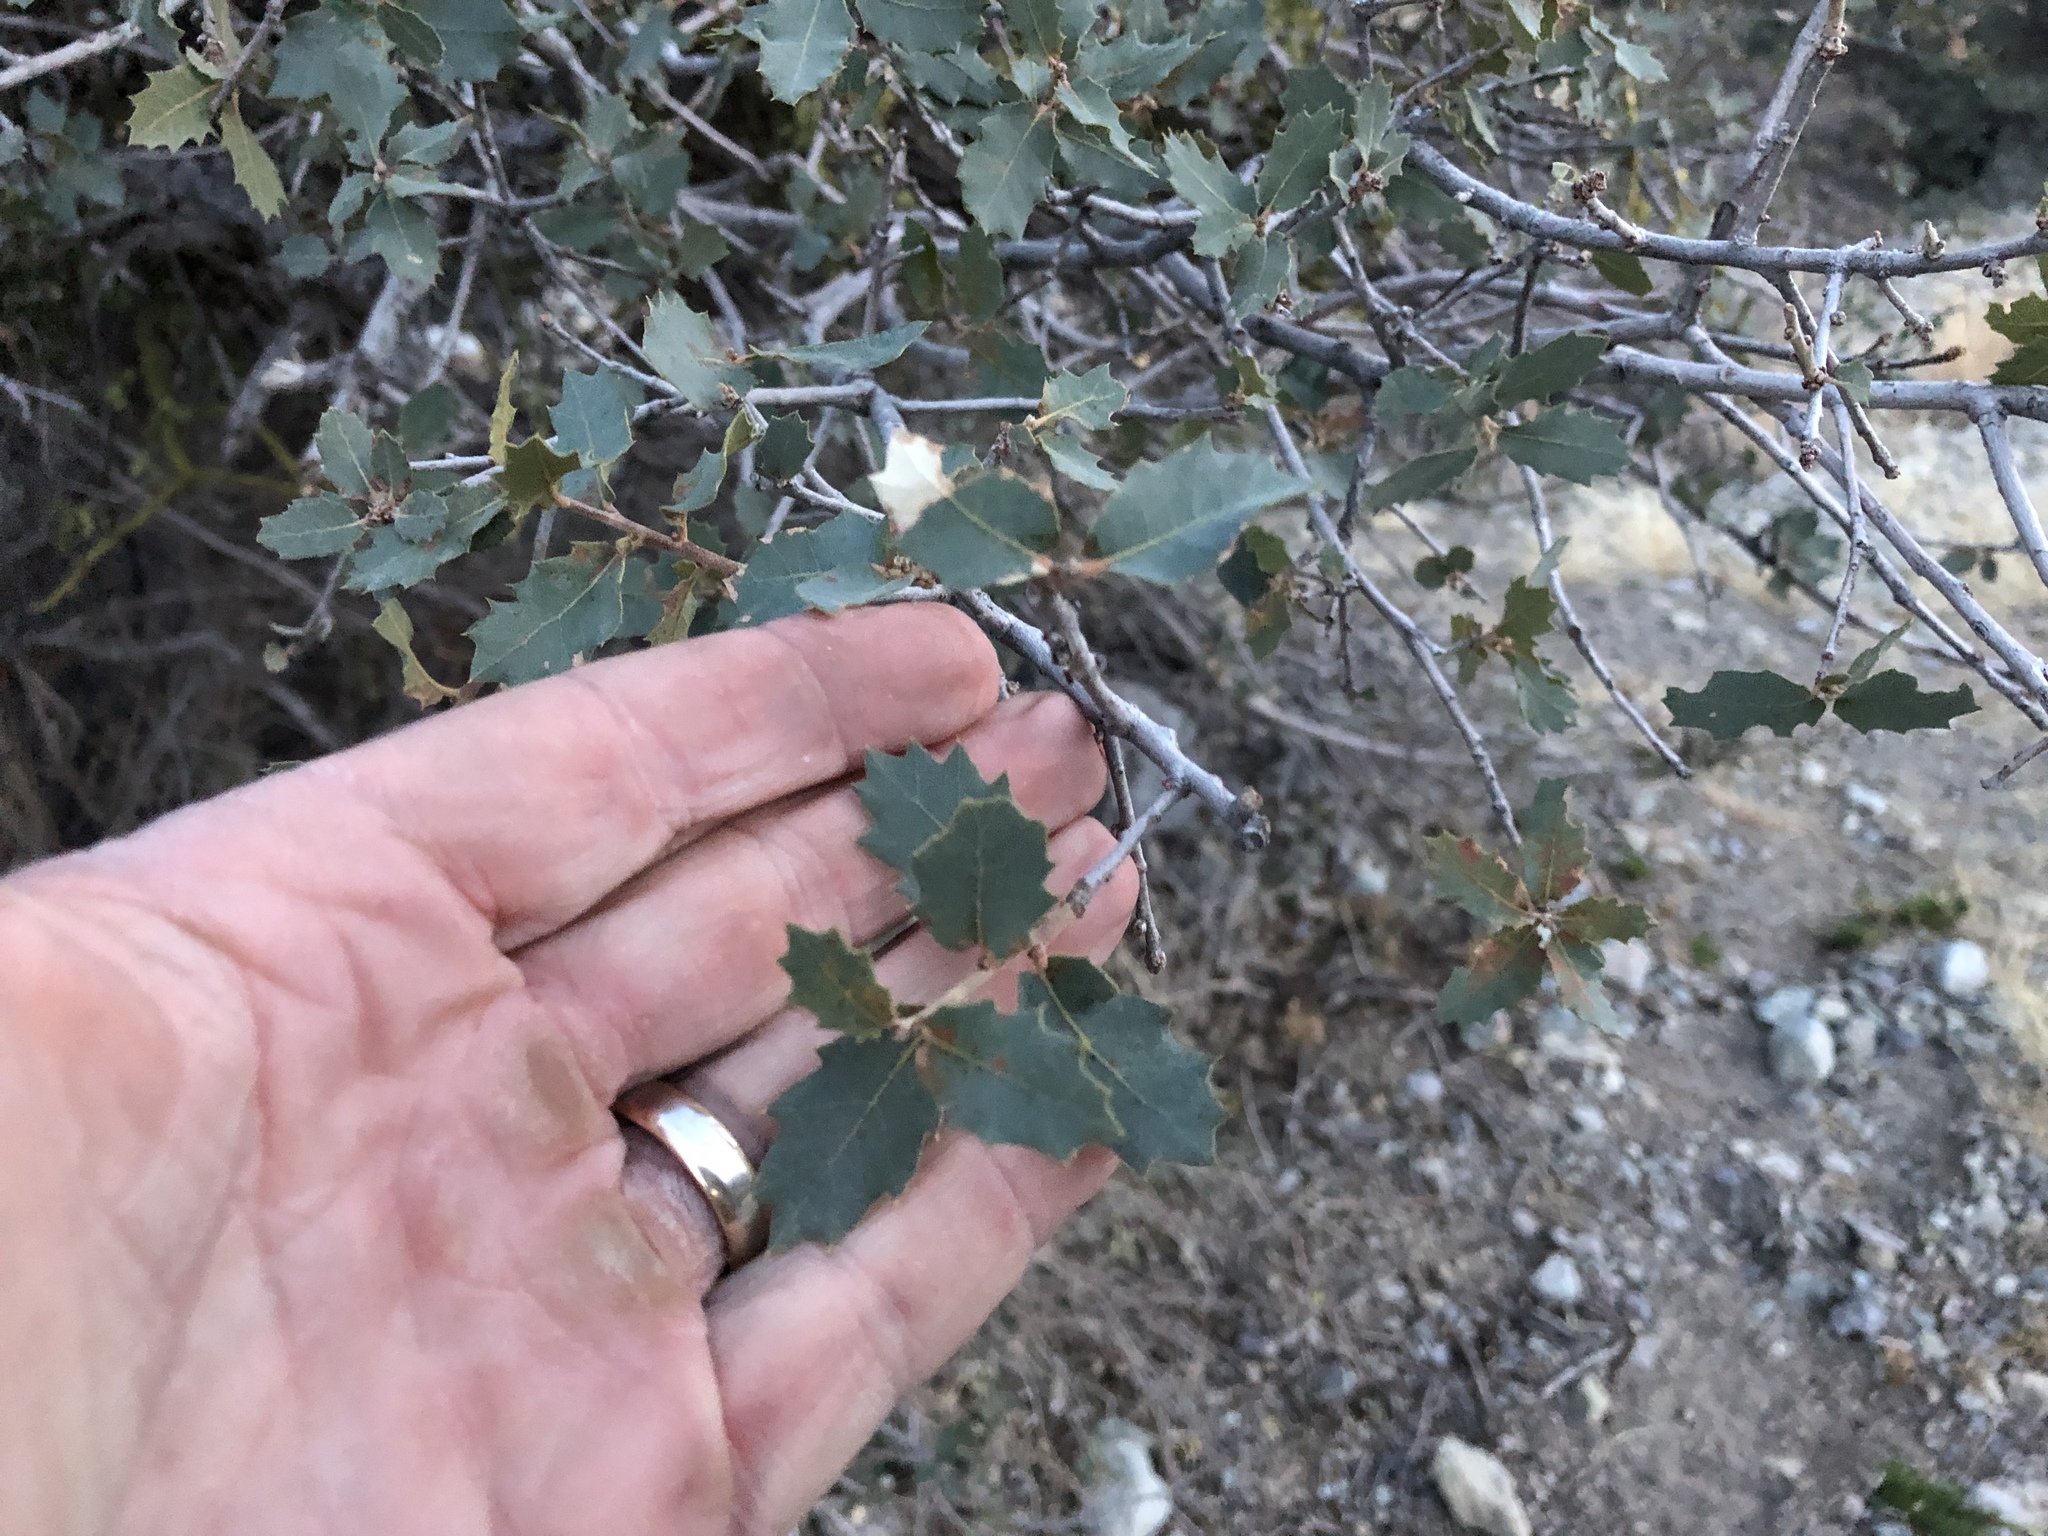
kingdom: Plantae
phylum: Tracheophyta
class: Magnoliopsida
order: Fagales
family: Fagaceae
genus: Quercus
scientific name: Quercus turbinella
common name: Sonoran scrub oak
